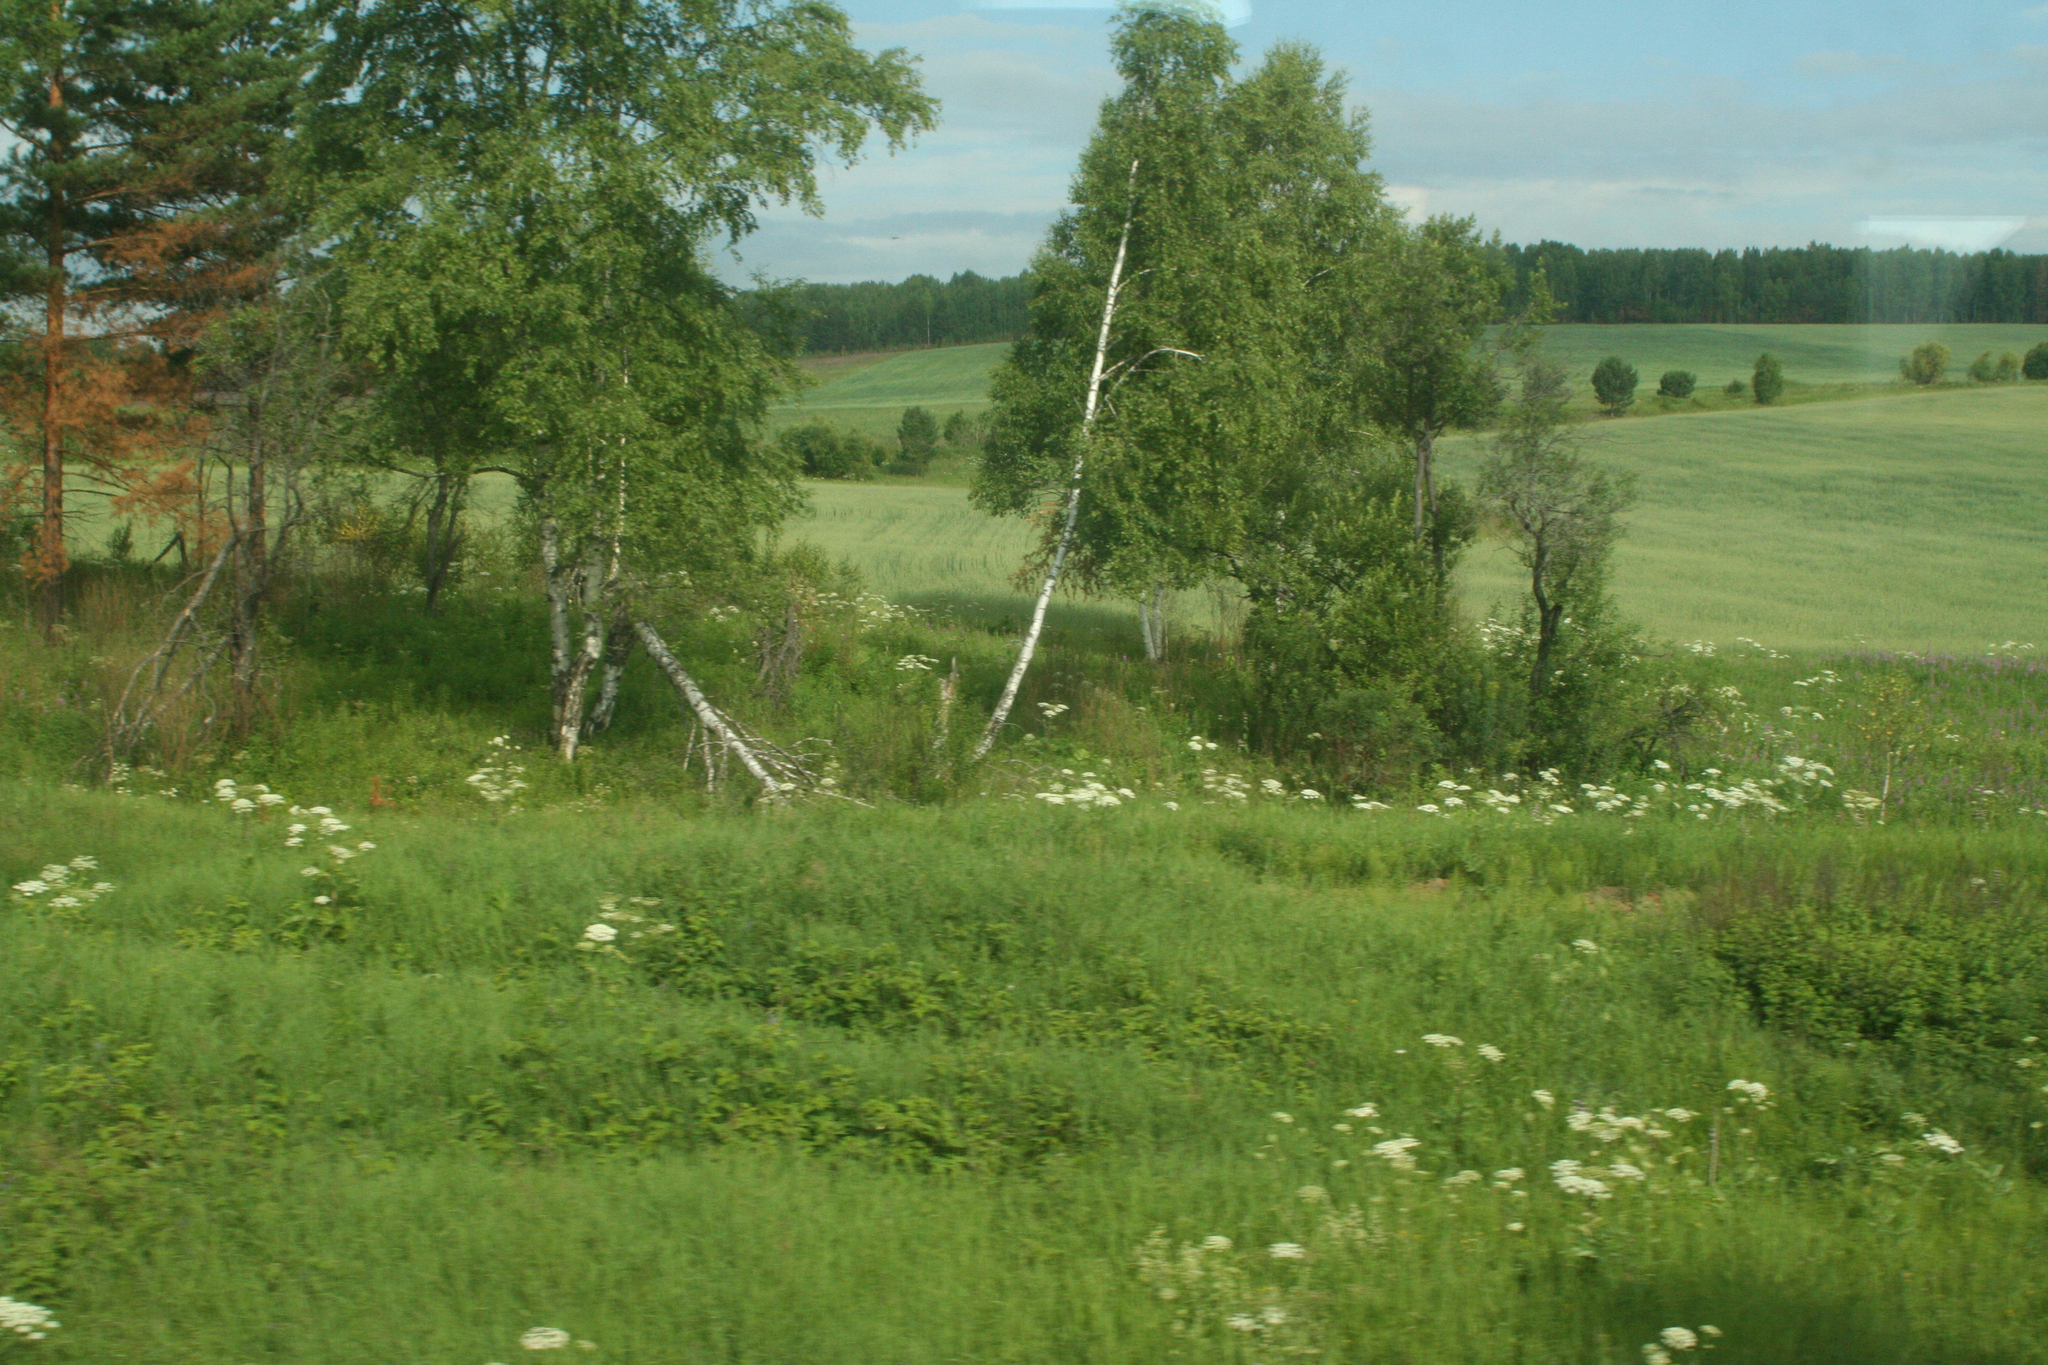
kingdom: Plantae
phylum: Tracheophyta
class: Magnoliopsida
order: Fagales
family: Betulaceae
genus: Betula
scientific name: Betula pendula
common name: Silver birch
